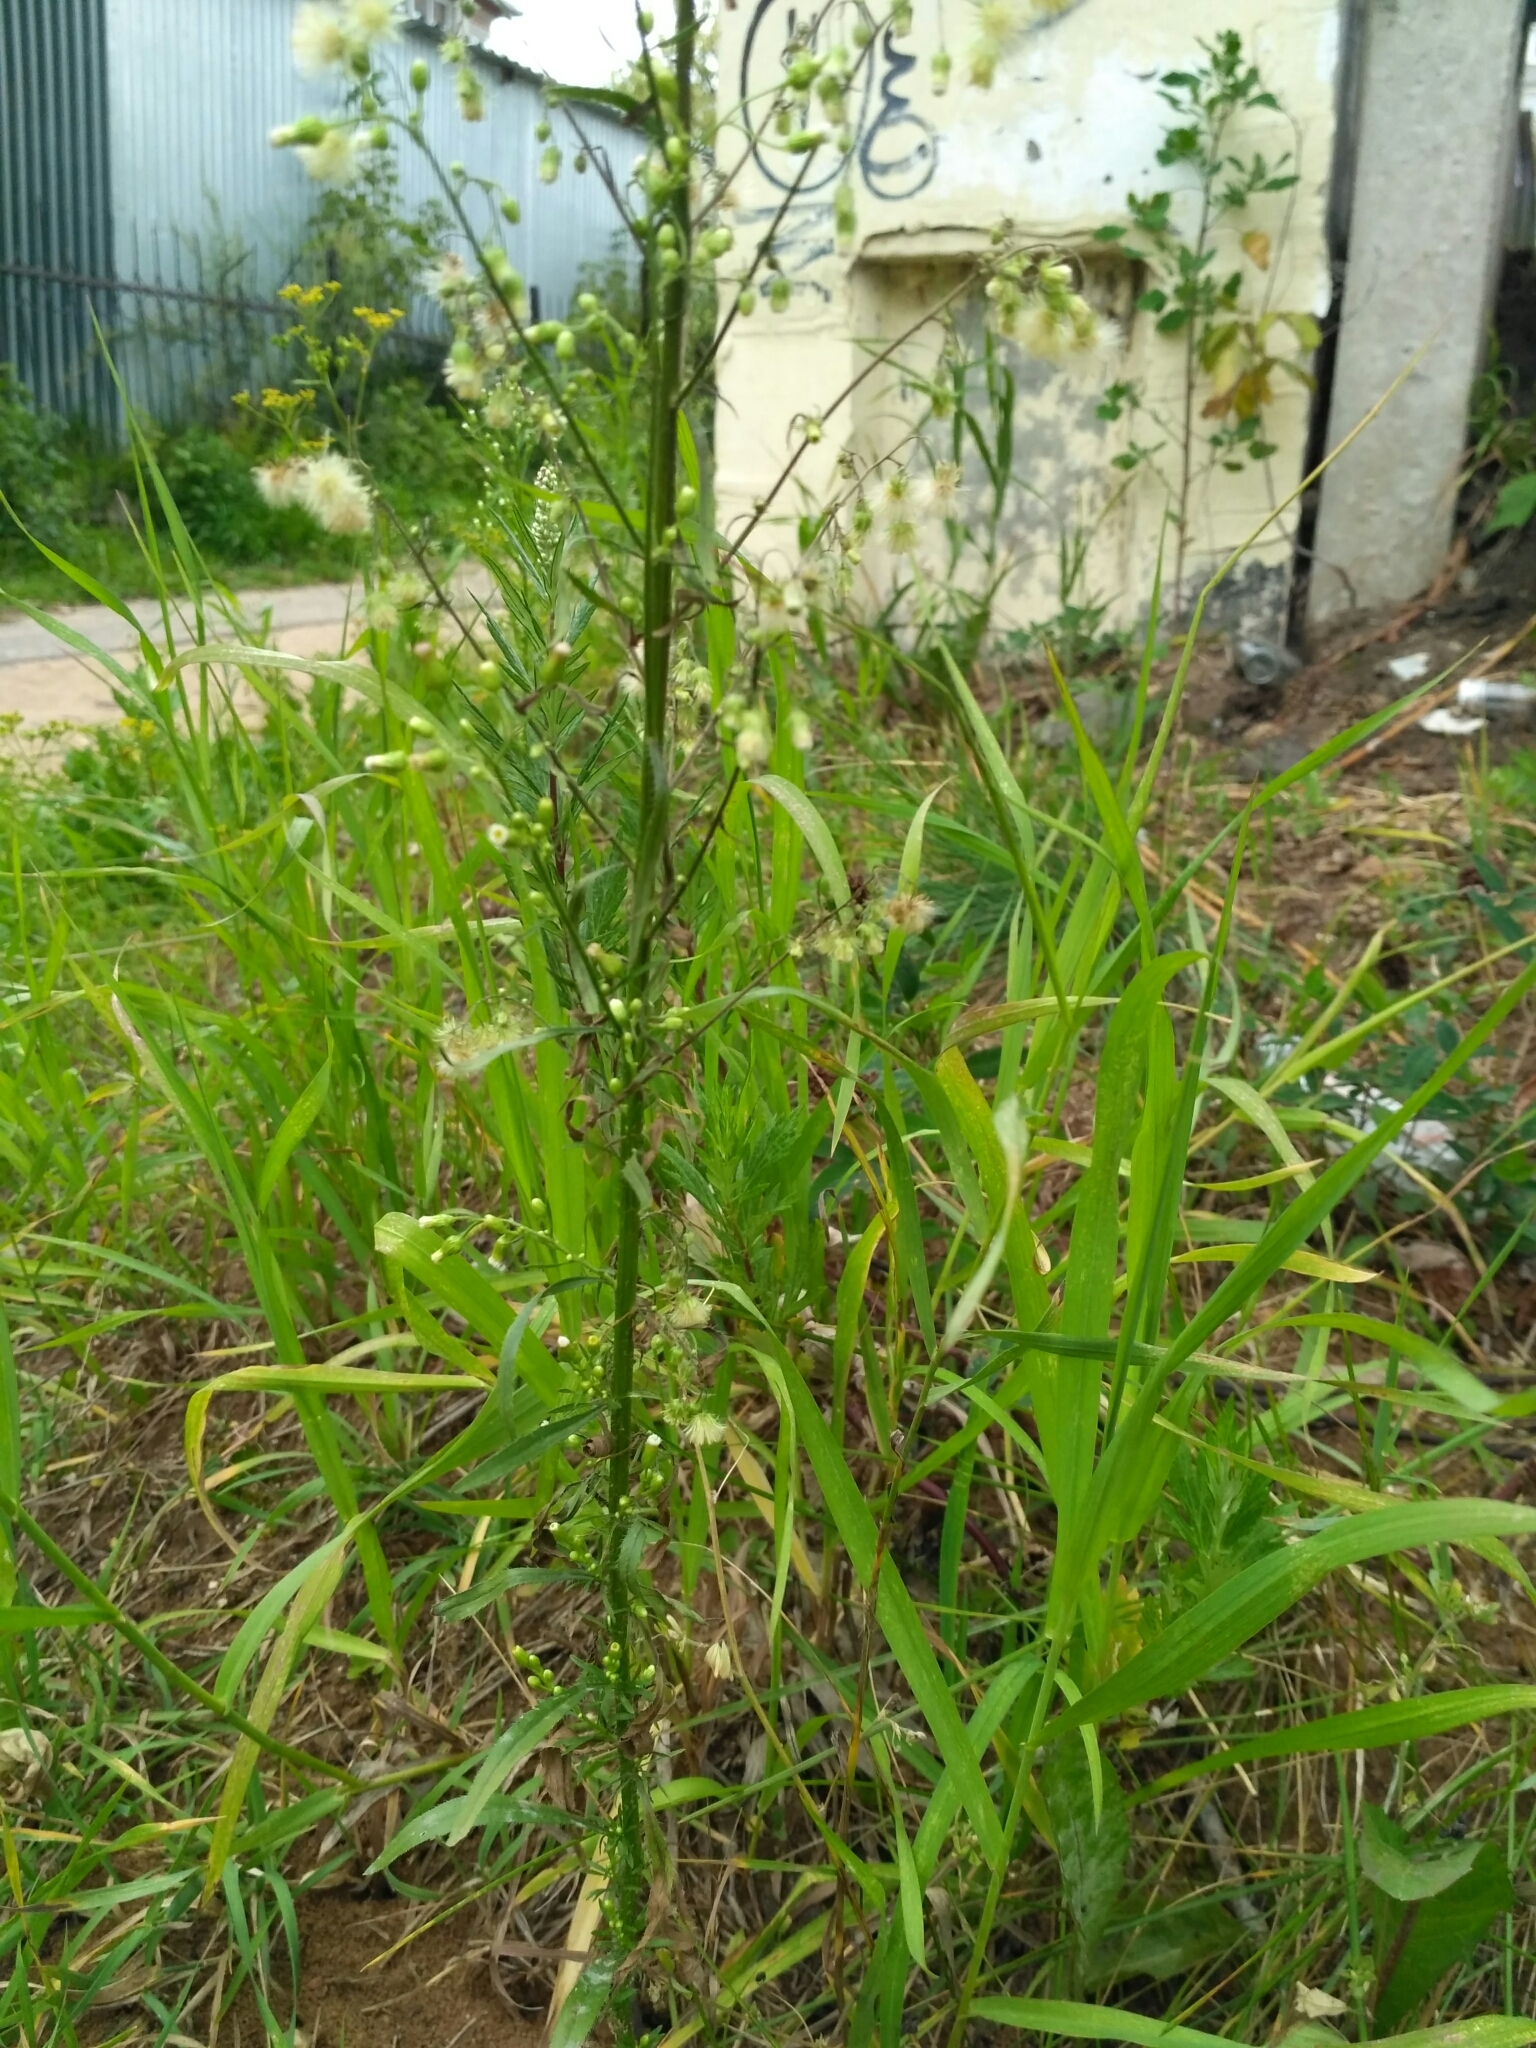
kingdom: Plantae
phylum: Tracheophyta
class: Magnoliopsida
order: Asterales
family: Asteraceae
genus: Erigeron
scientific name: Erigeron canadensis
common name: Canadian fleabane
